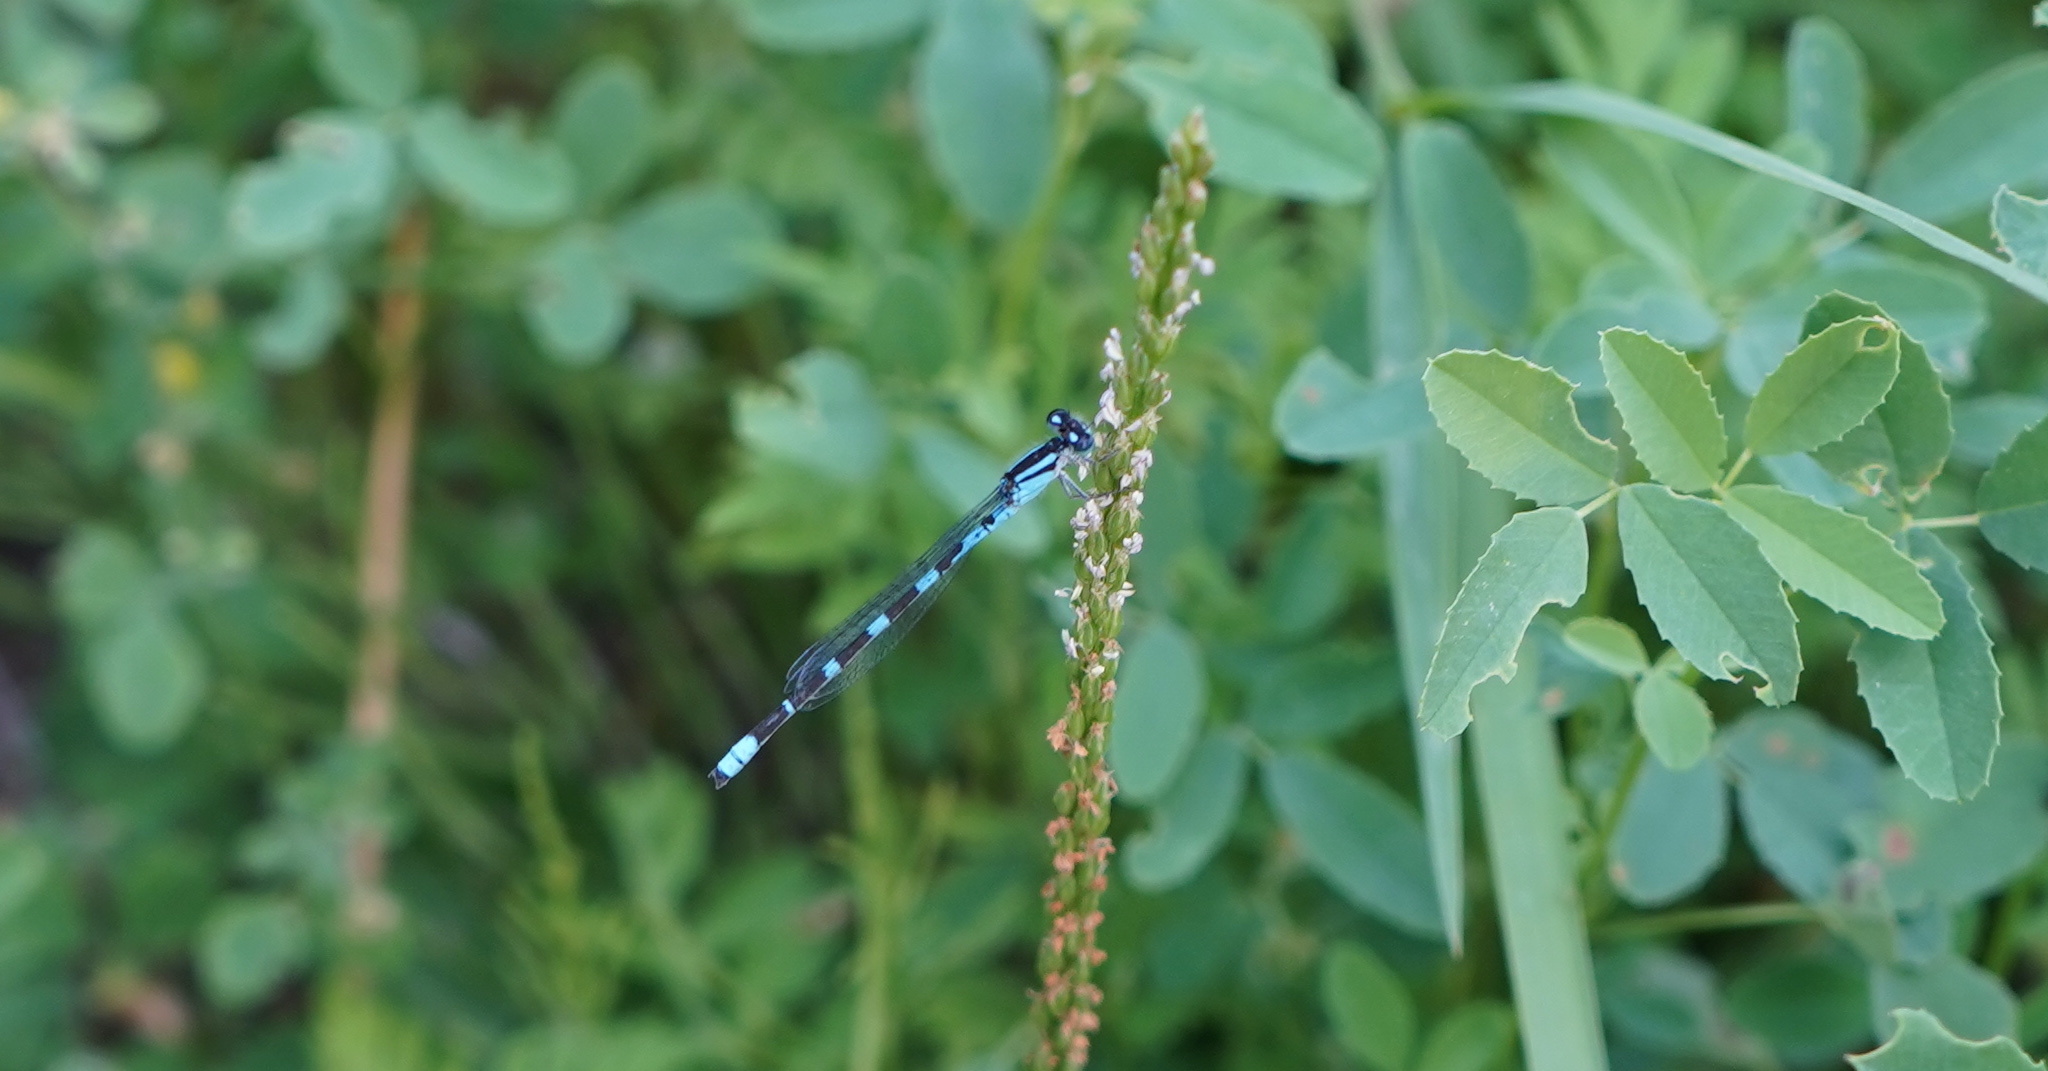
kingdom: Animalia
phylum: Arthropoda
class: Insecta
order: Odonata
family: Coenagrionidae
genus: Enallagma
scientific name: Enallagma carunculatum
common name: Tule bluet
